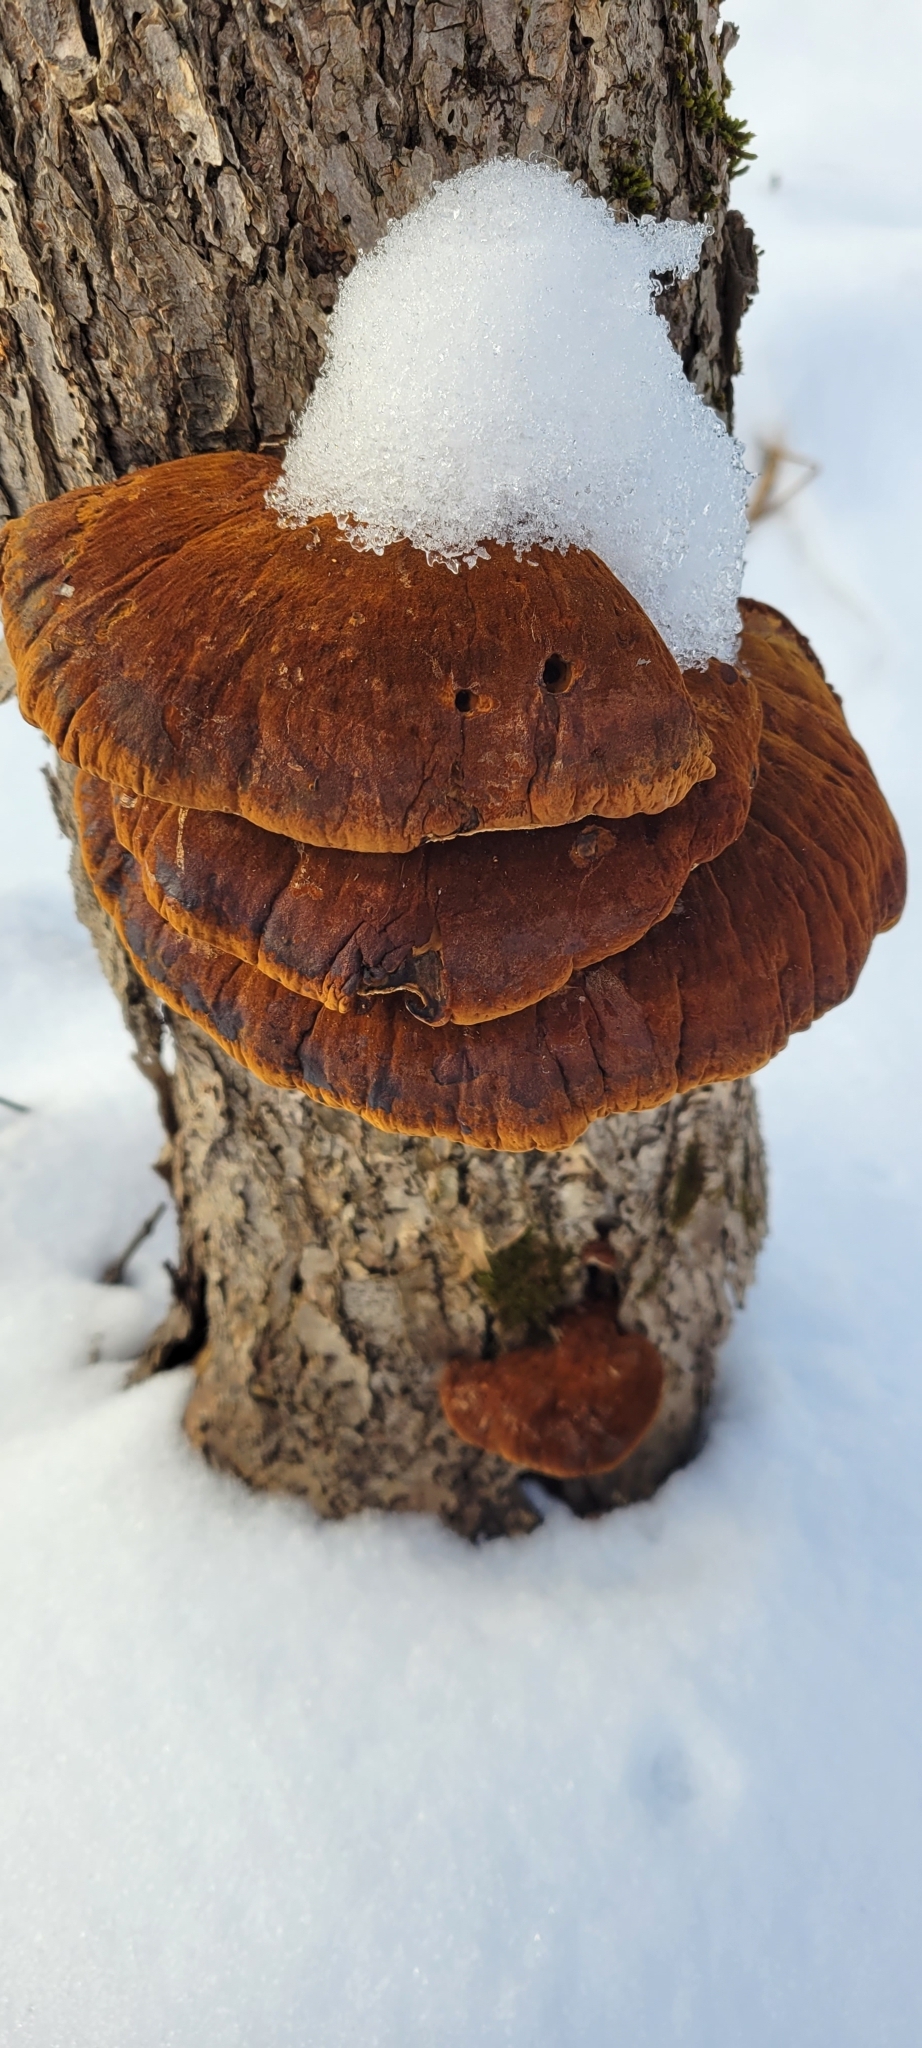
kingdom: Fungi
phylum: Basidiomycota
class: Agaricomycetes
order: Polyporales
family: Ischnodermataceae
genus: Ischnoderma
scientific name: Ischnoderma resinosum
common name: Resinous polypore
